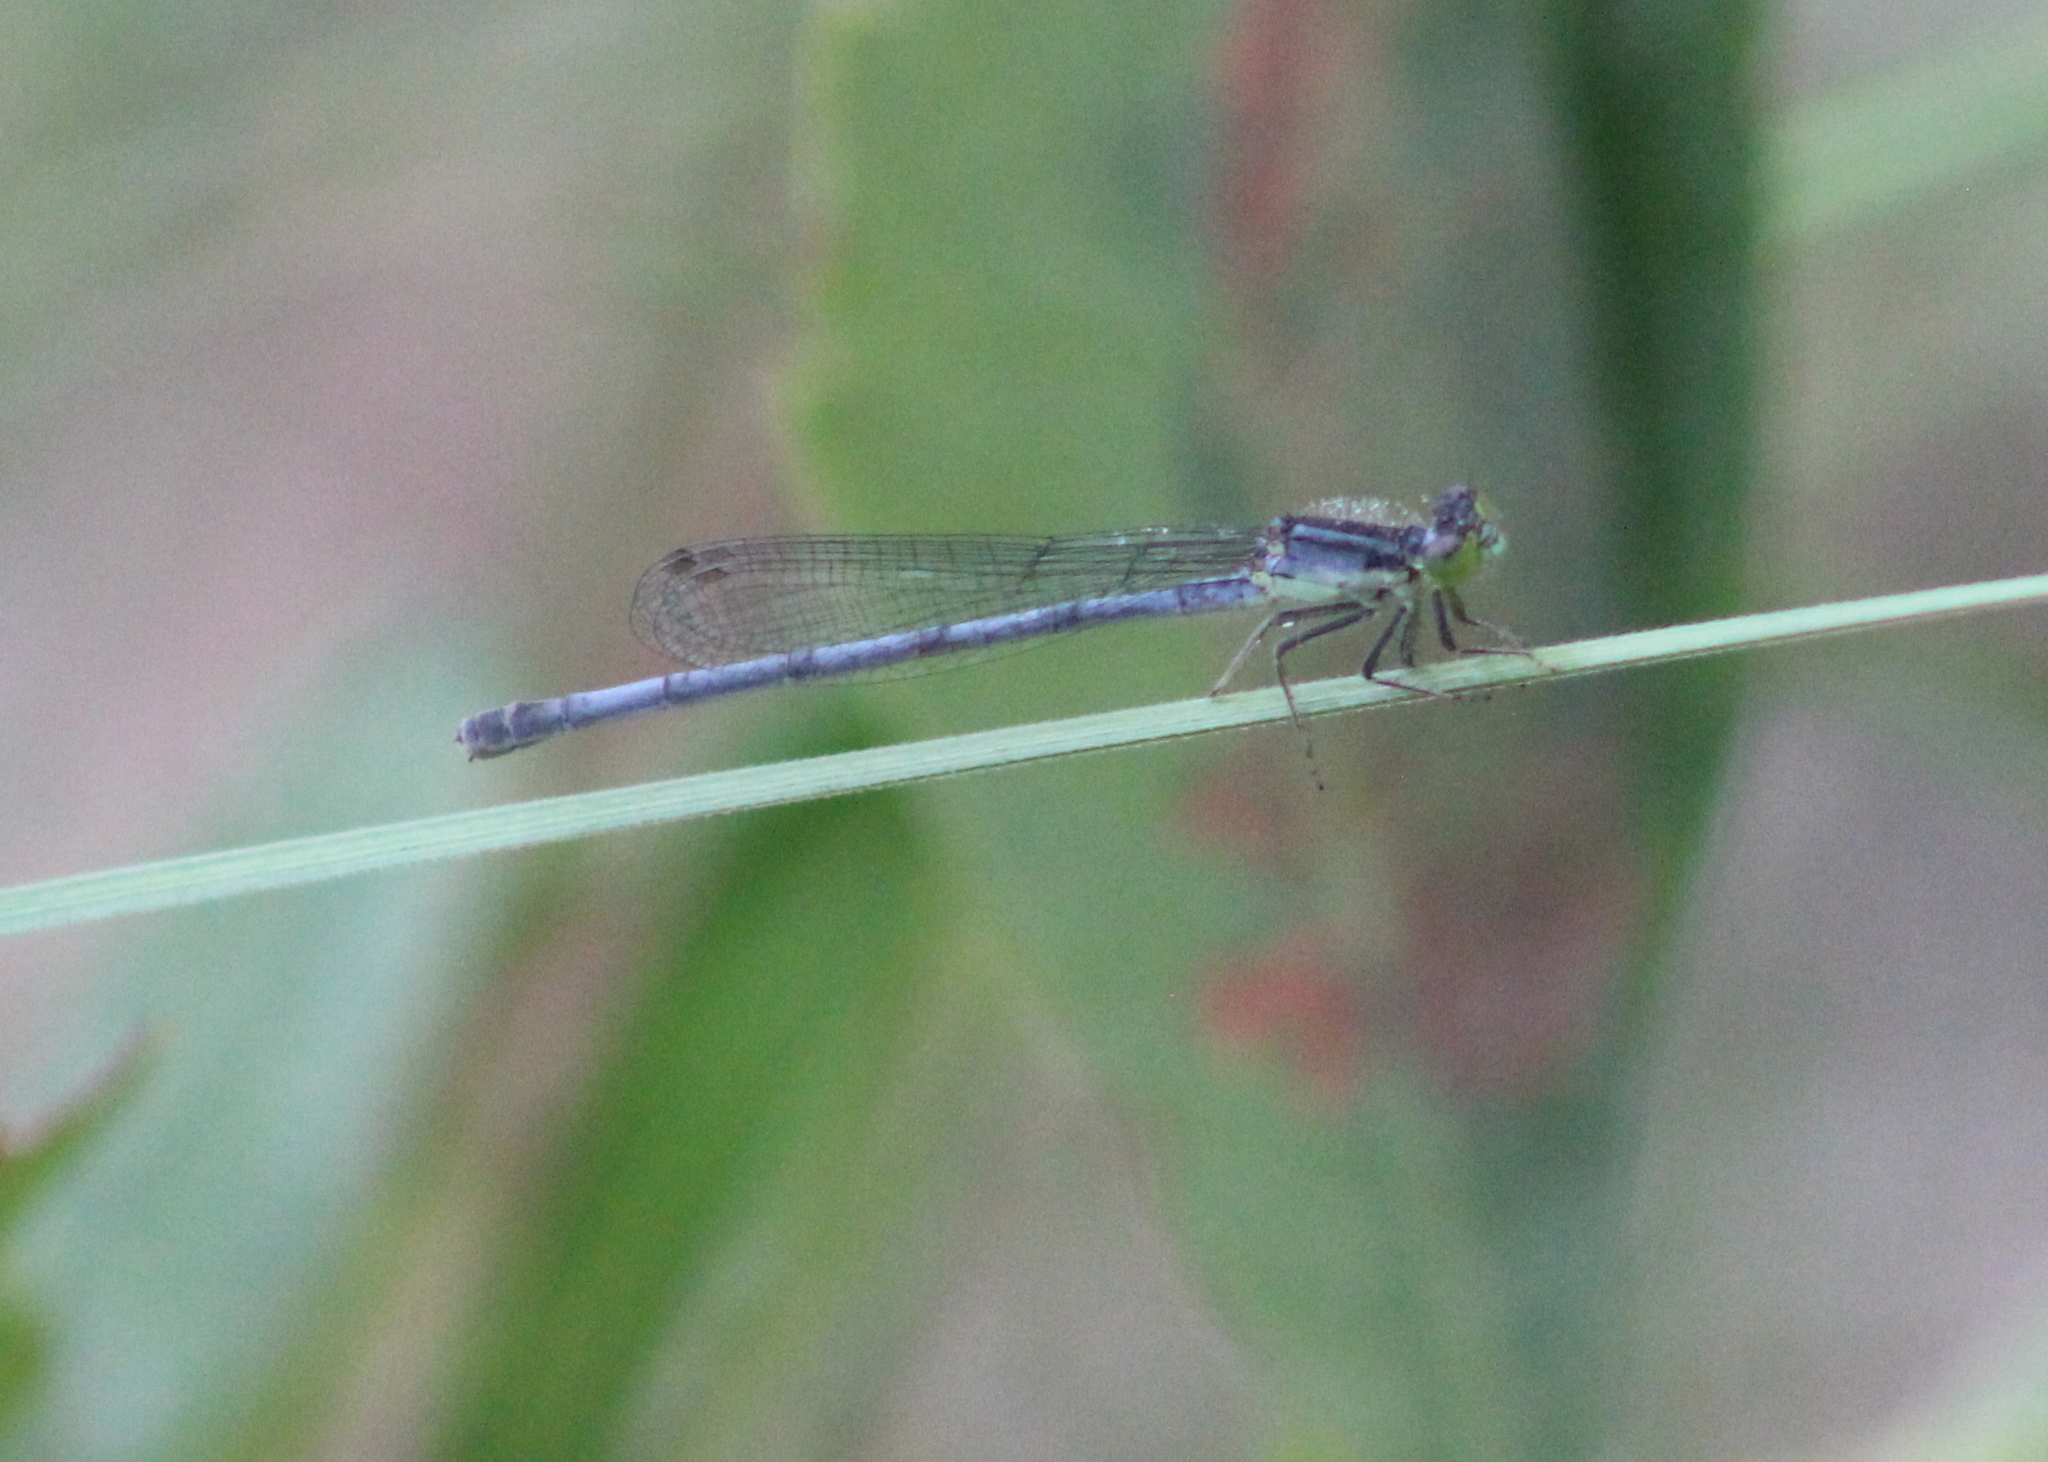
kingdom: Animalia
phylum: Arthropoda
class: Insecta
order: Odonata
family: Coenagrionidae
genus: Ischnura
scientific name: Ischnura verticalis
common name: Eastern forktail
